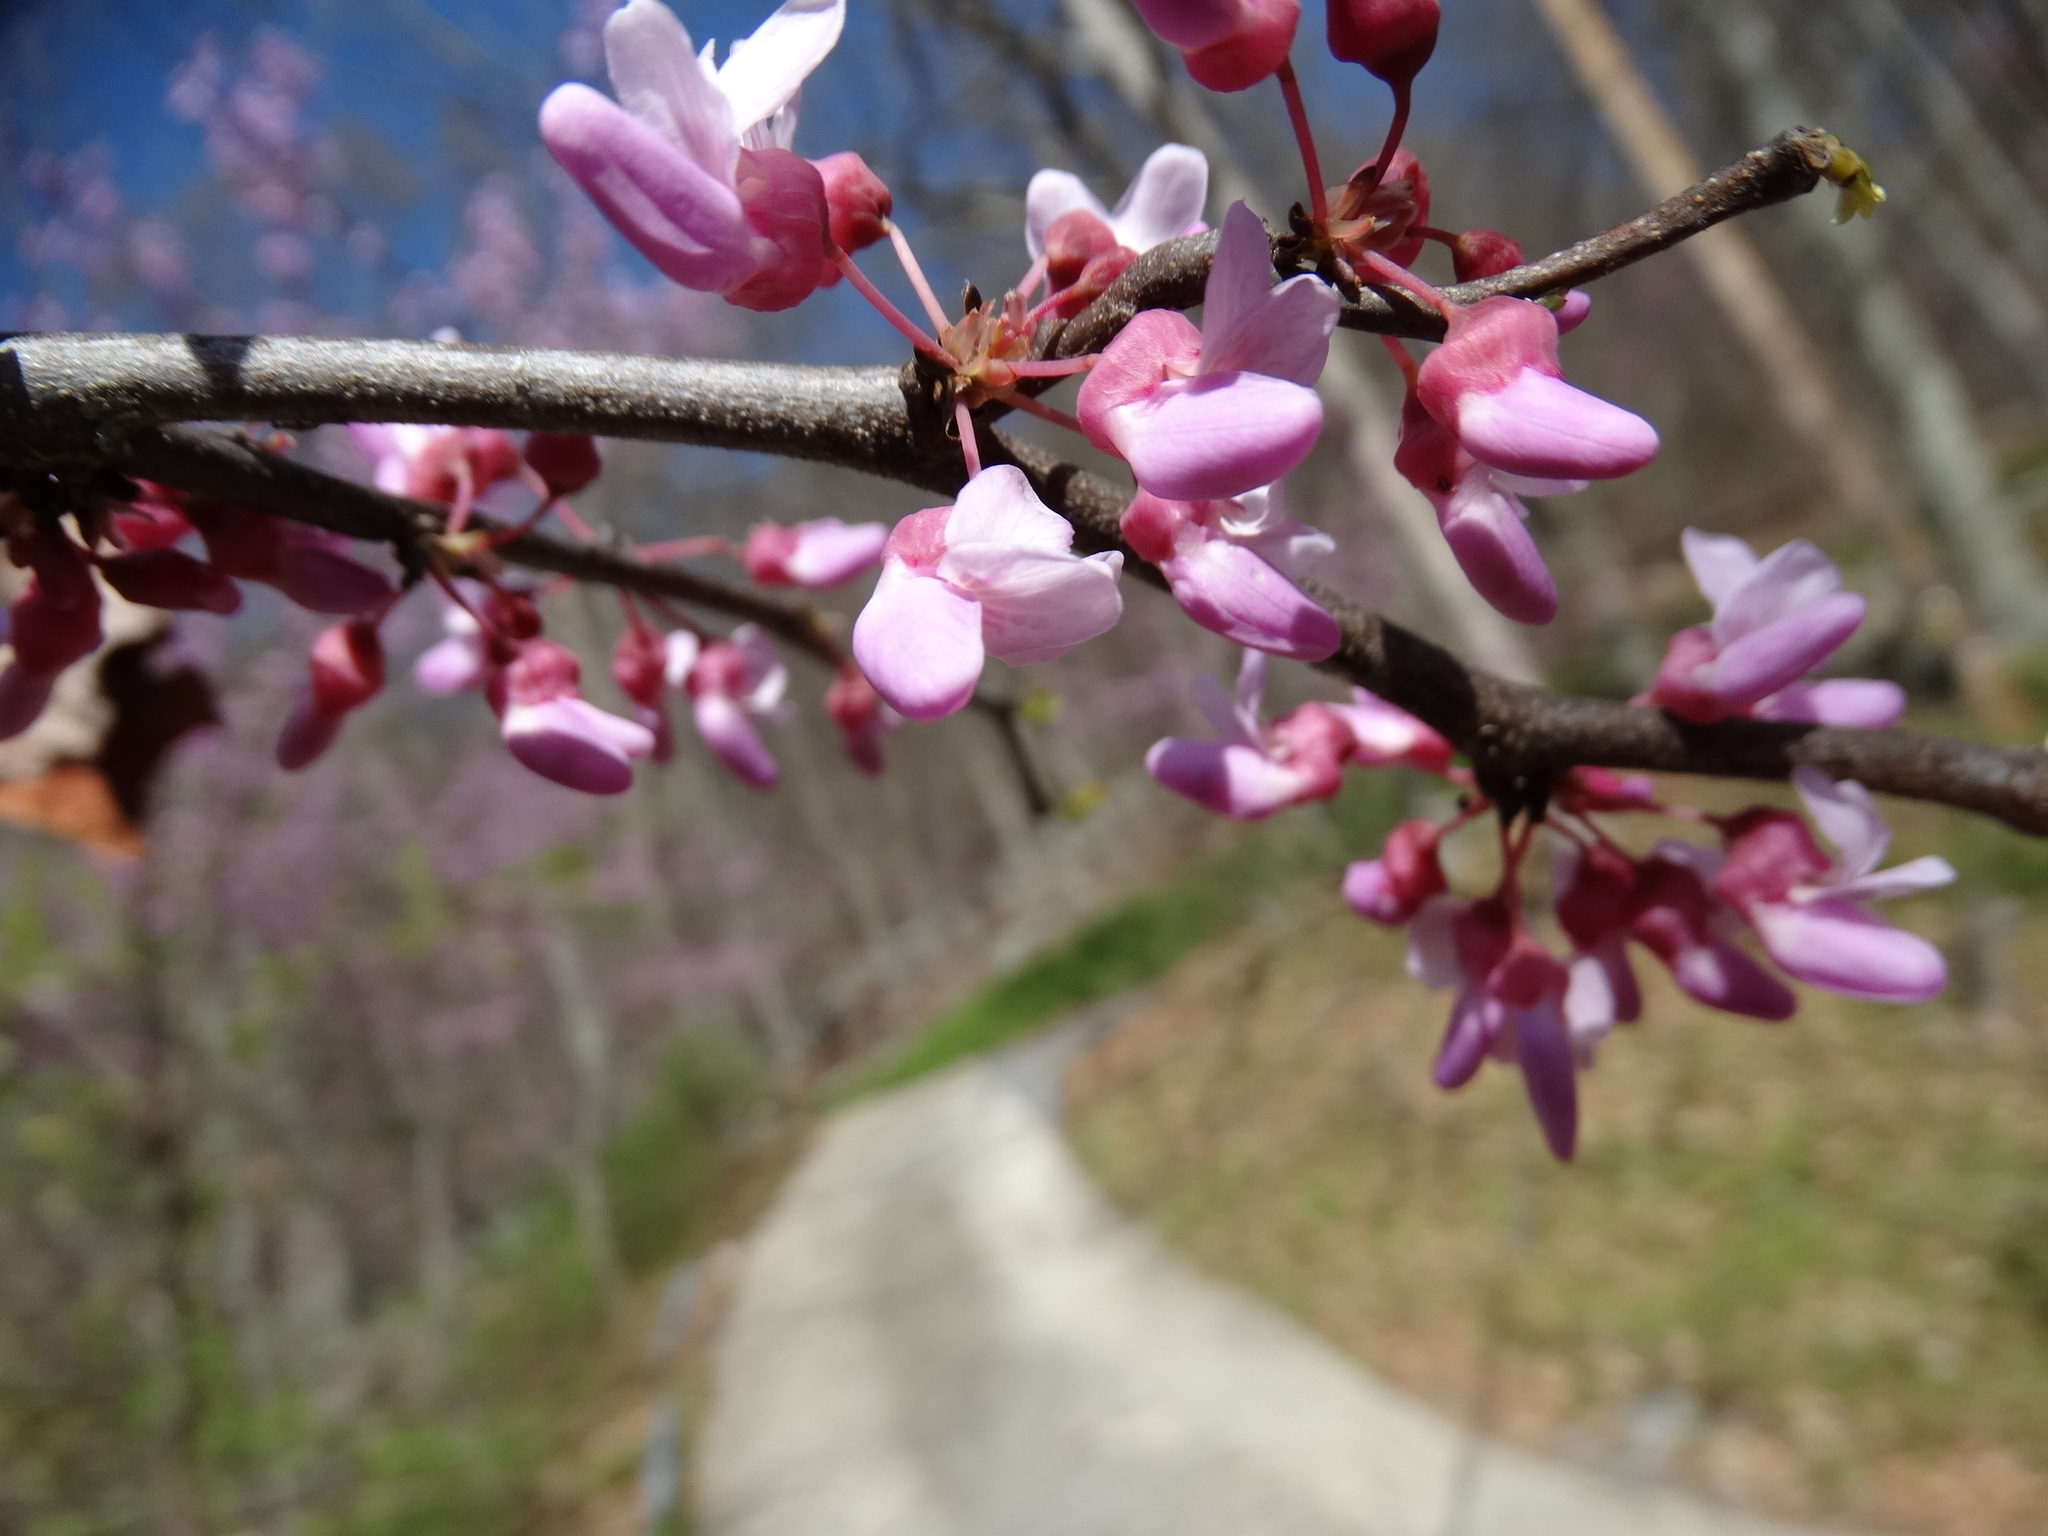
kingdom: Plantae
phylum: Tracheophyta
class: Magnoliopsida
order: Fabales
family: Fabaceae
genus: Cercis
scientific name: Cercis canadensis
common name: Eastern redbud
